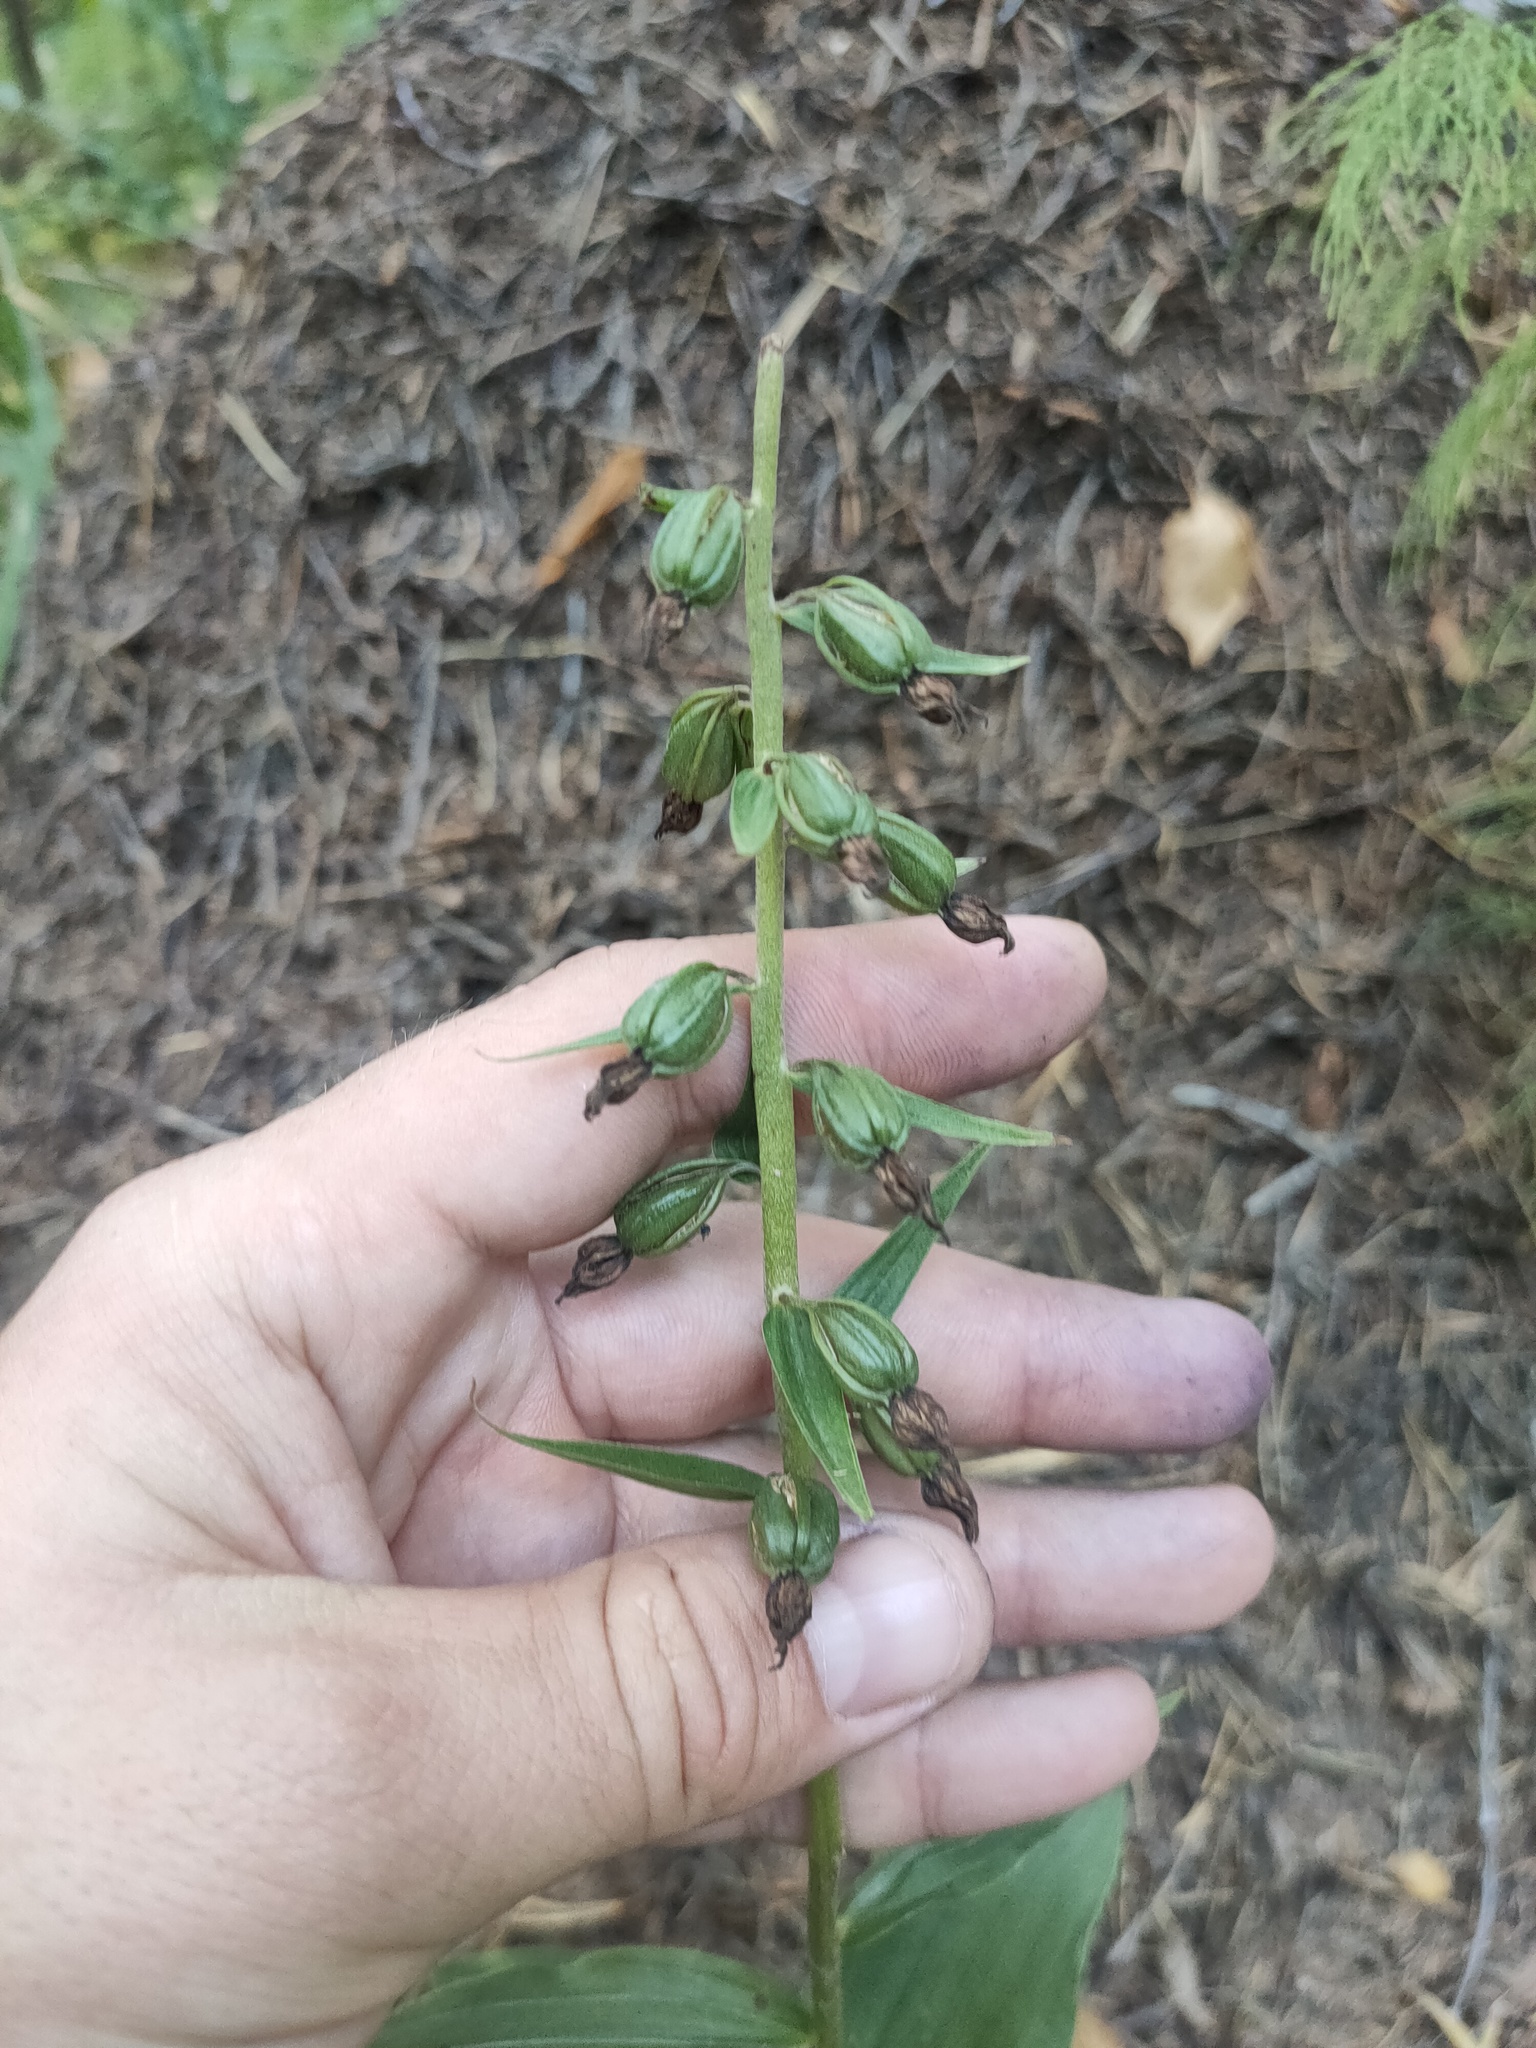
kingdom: Plantae
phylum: Tracheophyta
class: Liliopsida
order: Asparagales
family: Orchidaceae
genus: Epipactis
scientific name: Epipactis helleborine
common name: Broad-leaved helleborine
